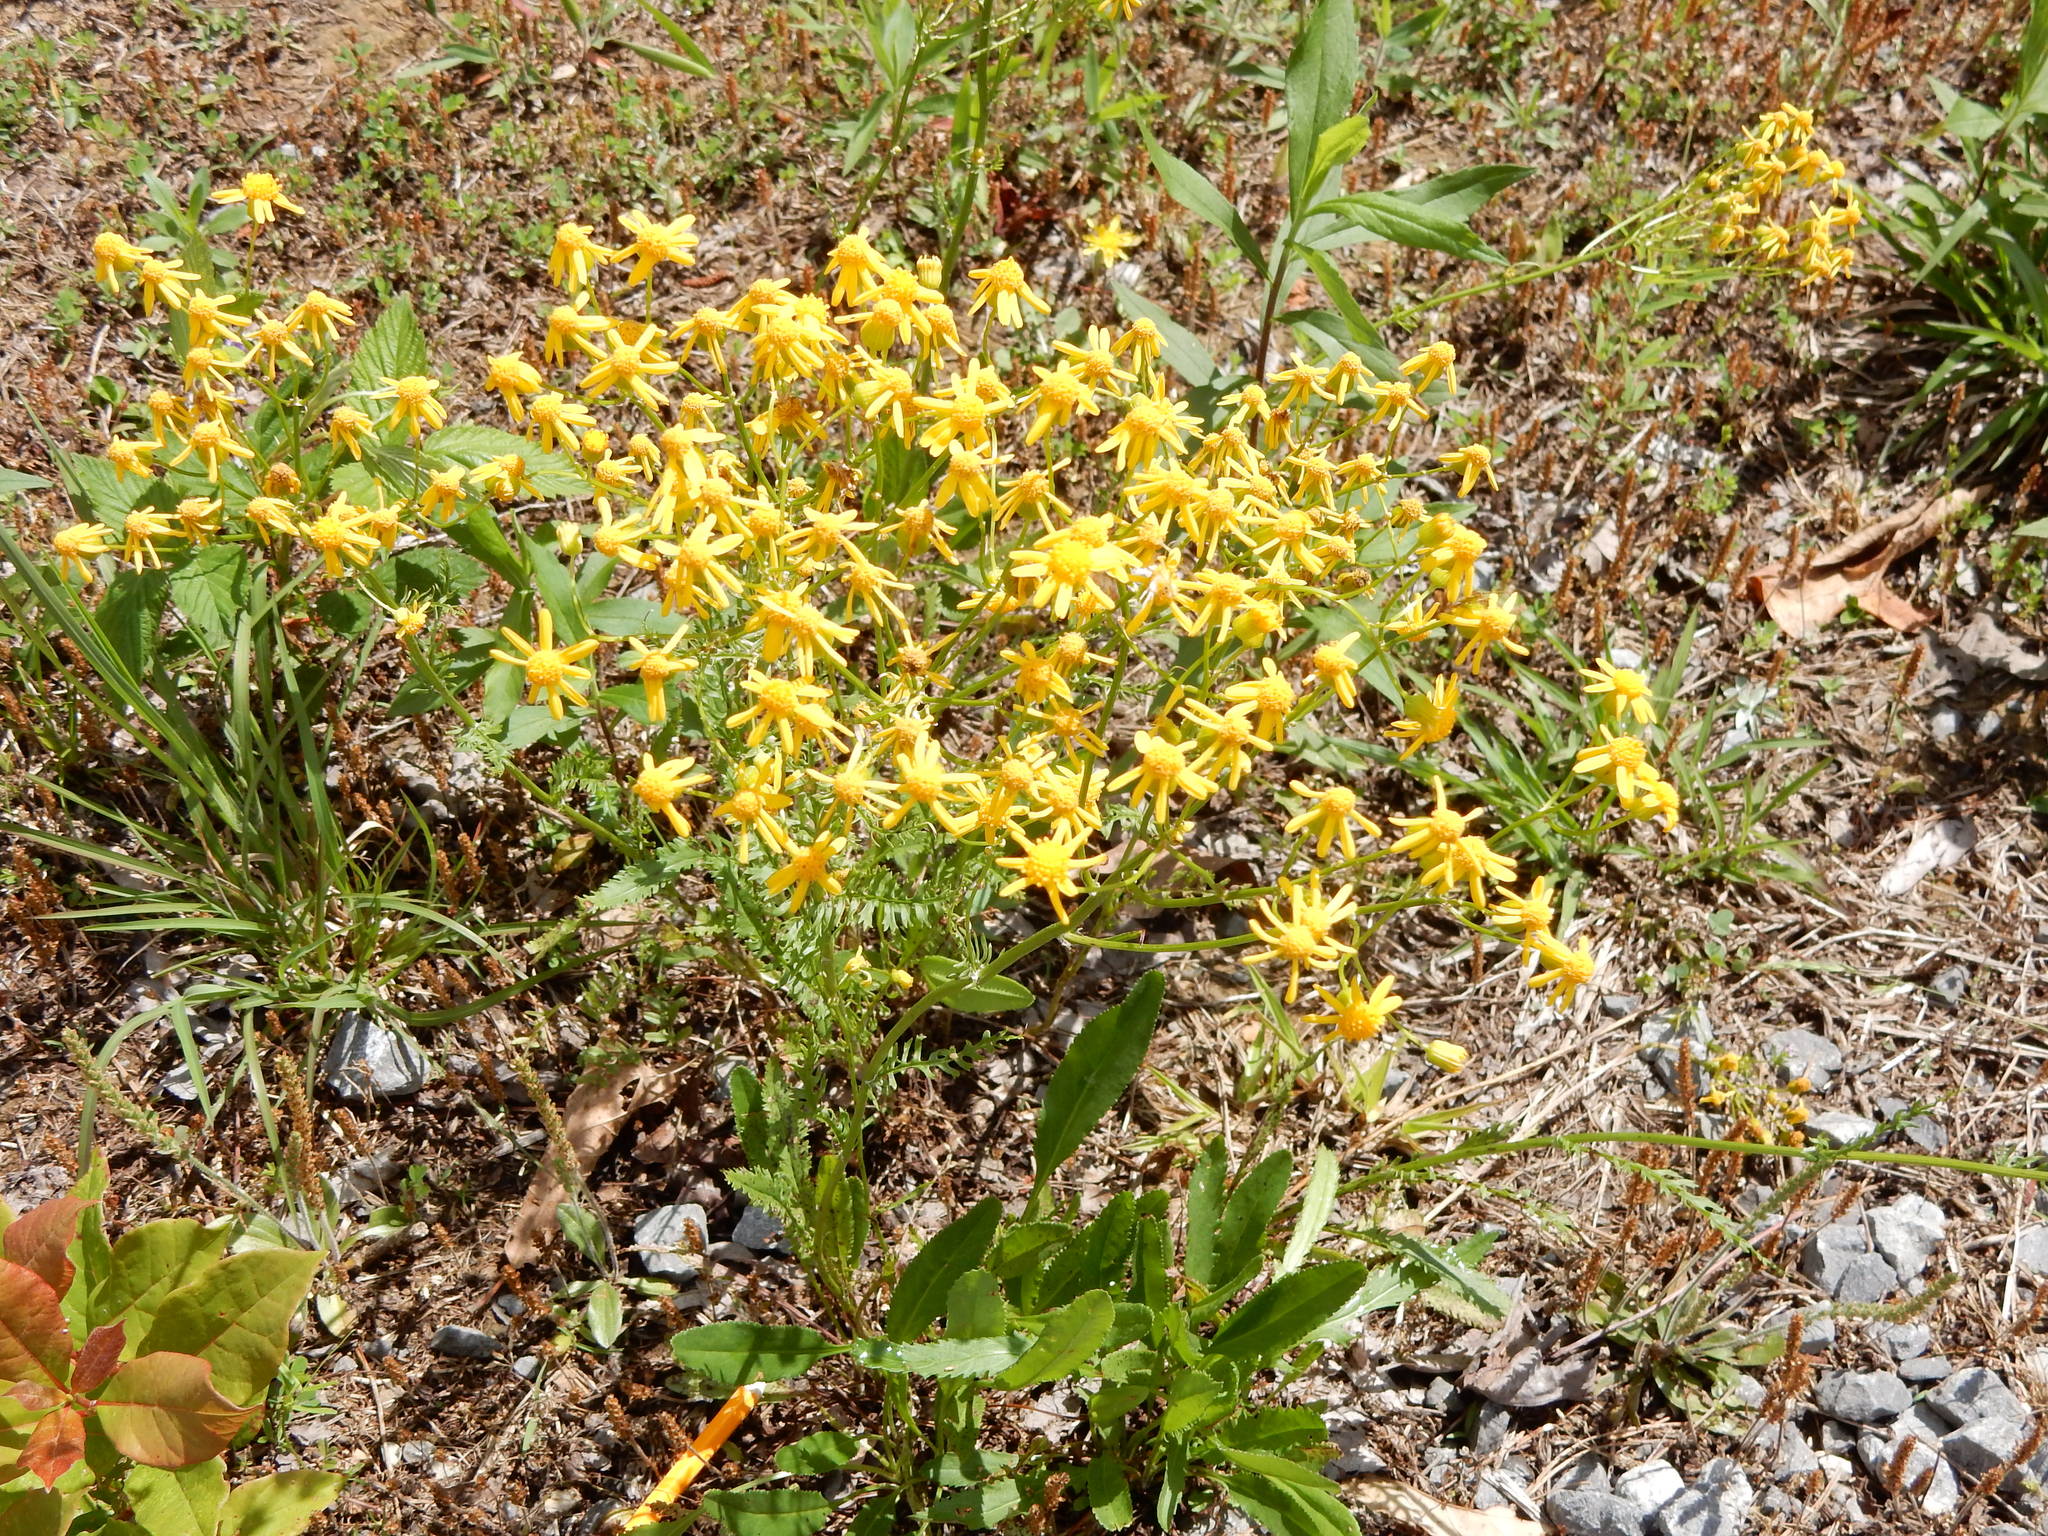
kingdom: Plantae
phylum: Tracheophyta
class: Magnoliopsida
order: Asterales
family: Asteraceae
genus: Packera
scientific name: Packera anonyma
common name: Small ragwort
